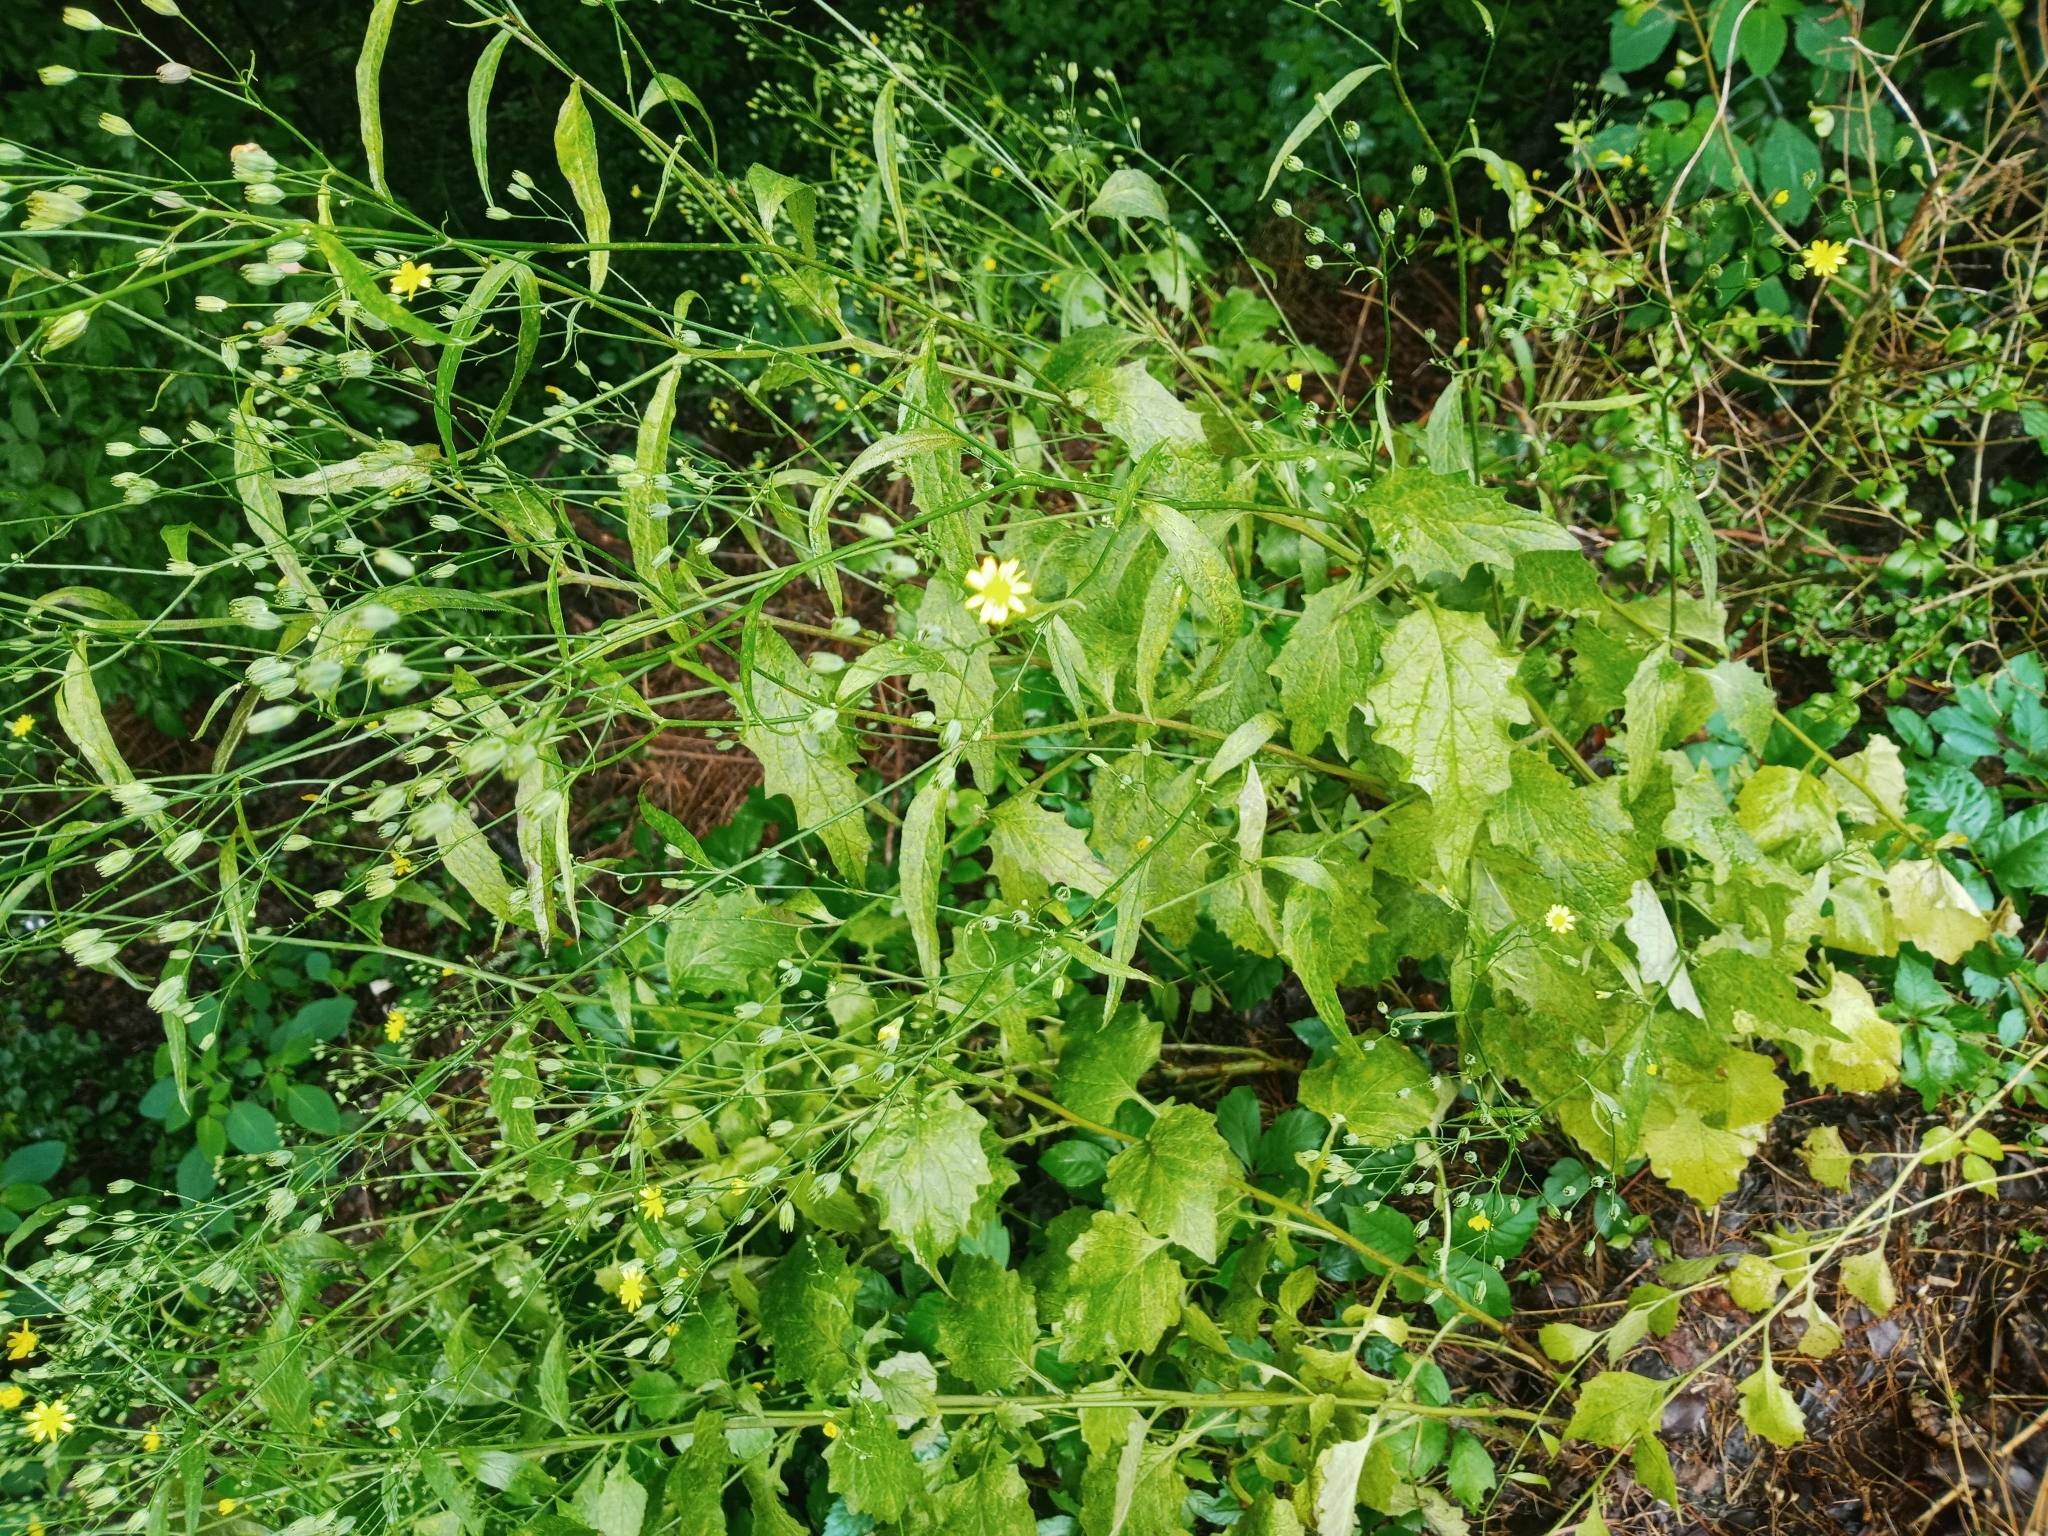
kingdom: Plantae
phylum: Tracheophyta
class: Magnoliopsida
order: Asterales
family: Asteraceae
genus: Lapsana
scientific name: Lapsana communis
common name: Nipplewort
